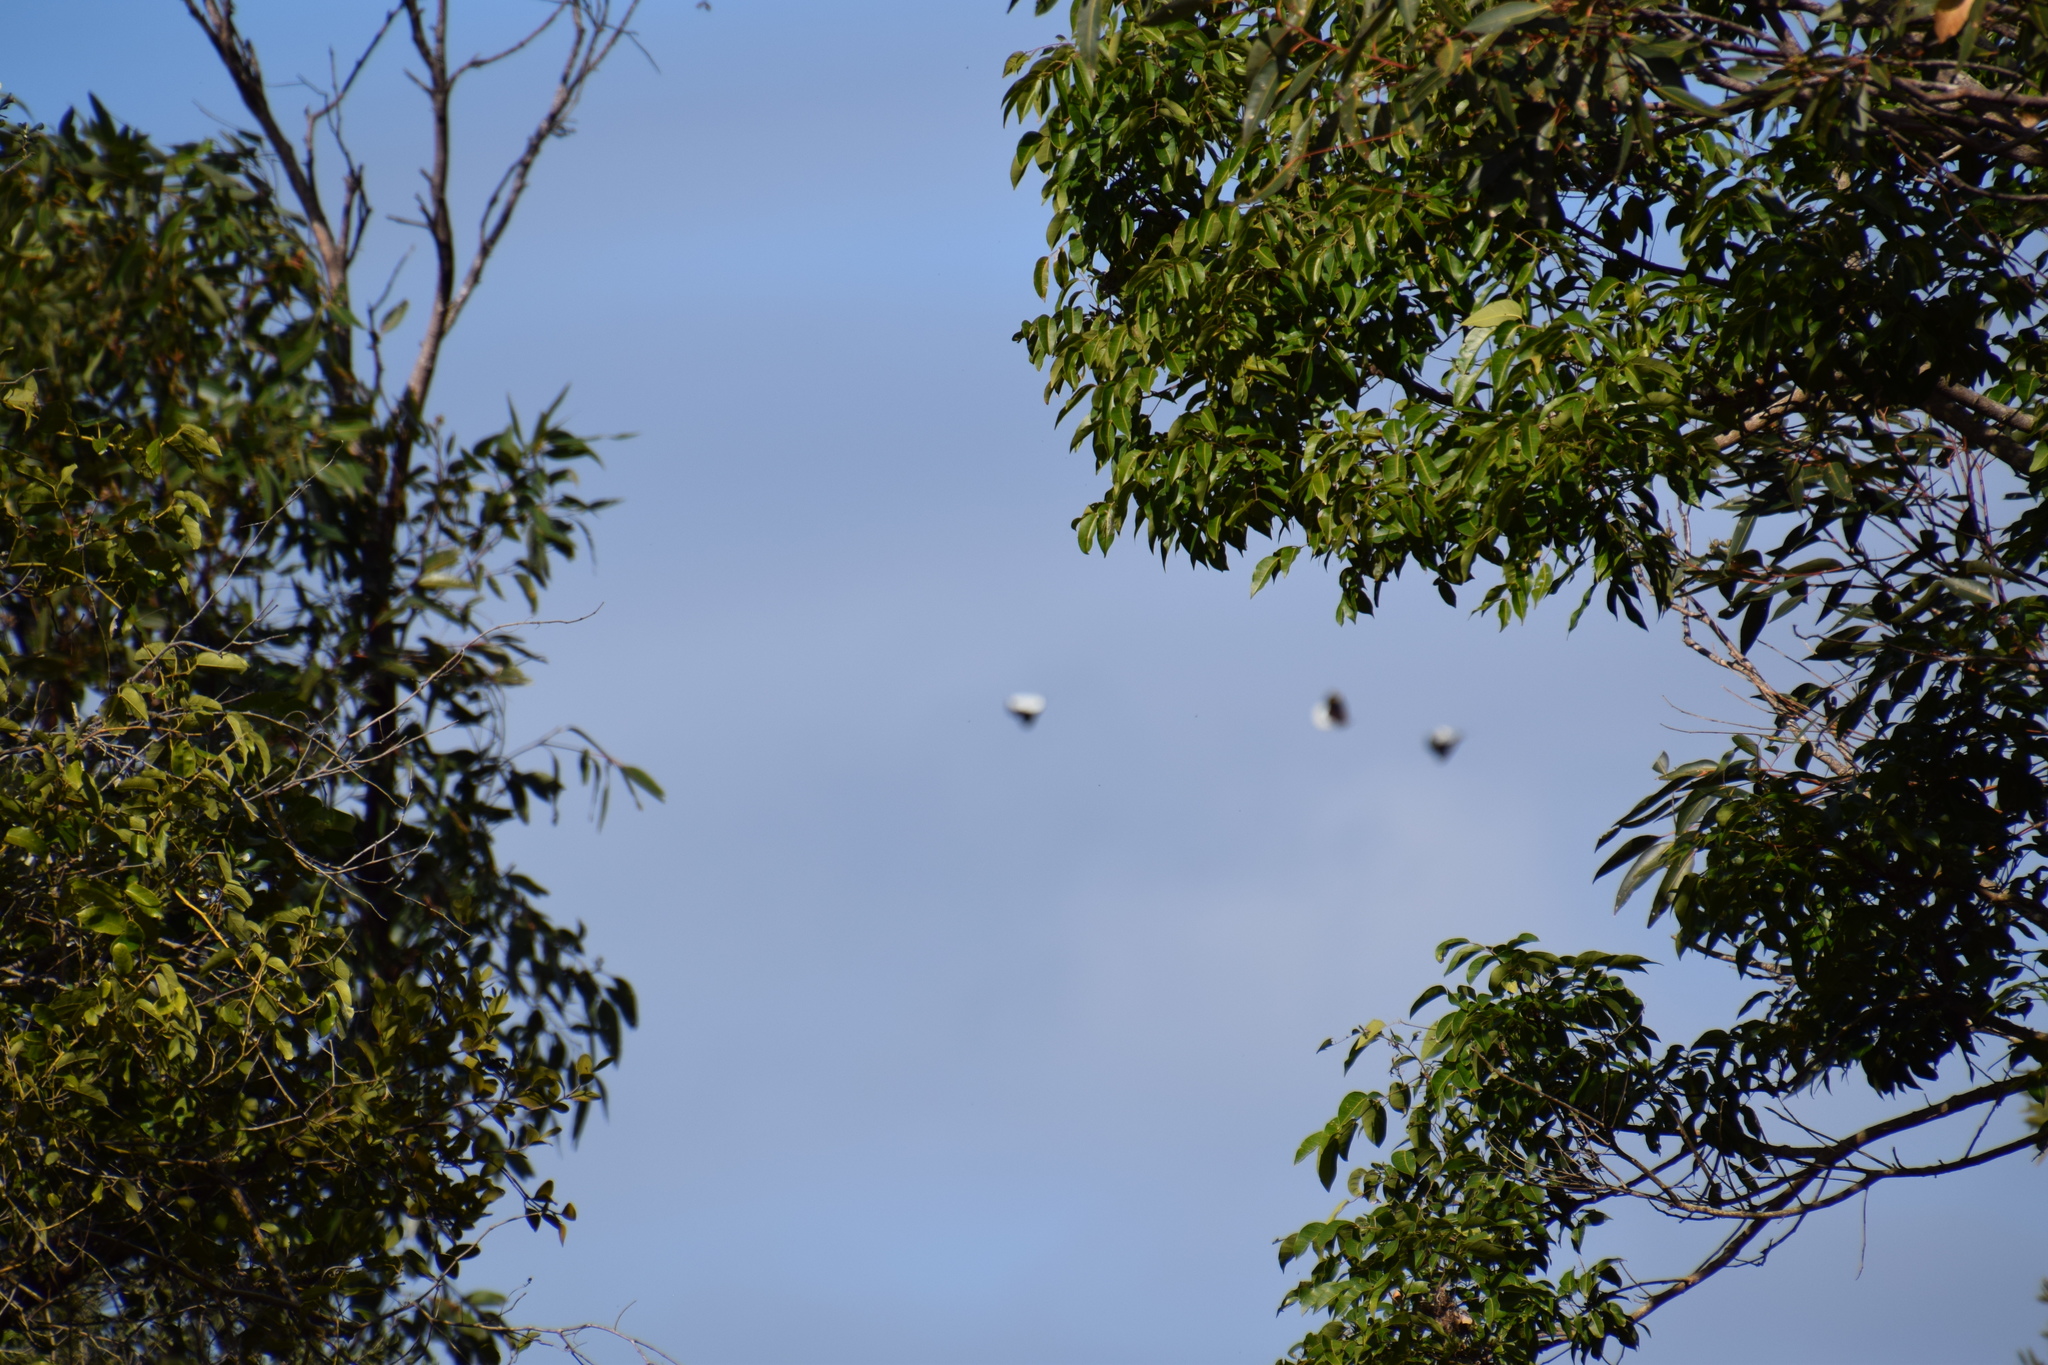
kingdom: Animalia
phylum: Arthropoda
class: Insecta
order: Lepidoptera
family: Pieridae
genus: Delias
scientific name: Delias nigrina
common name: Black jezebel
